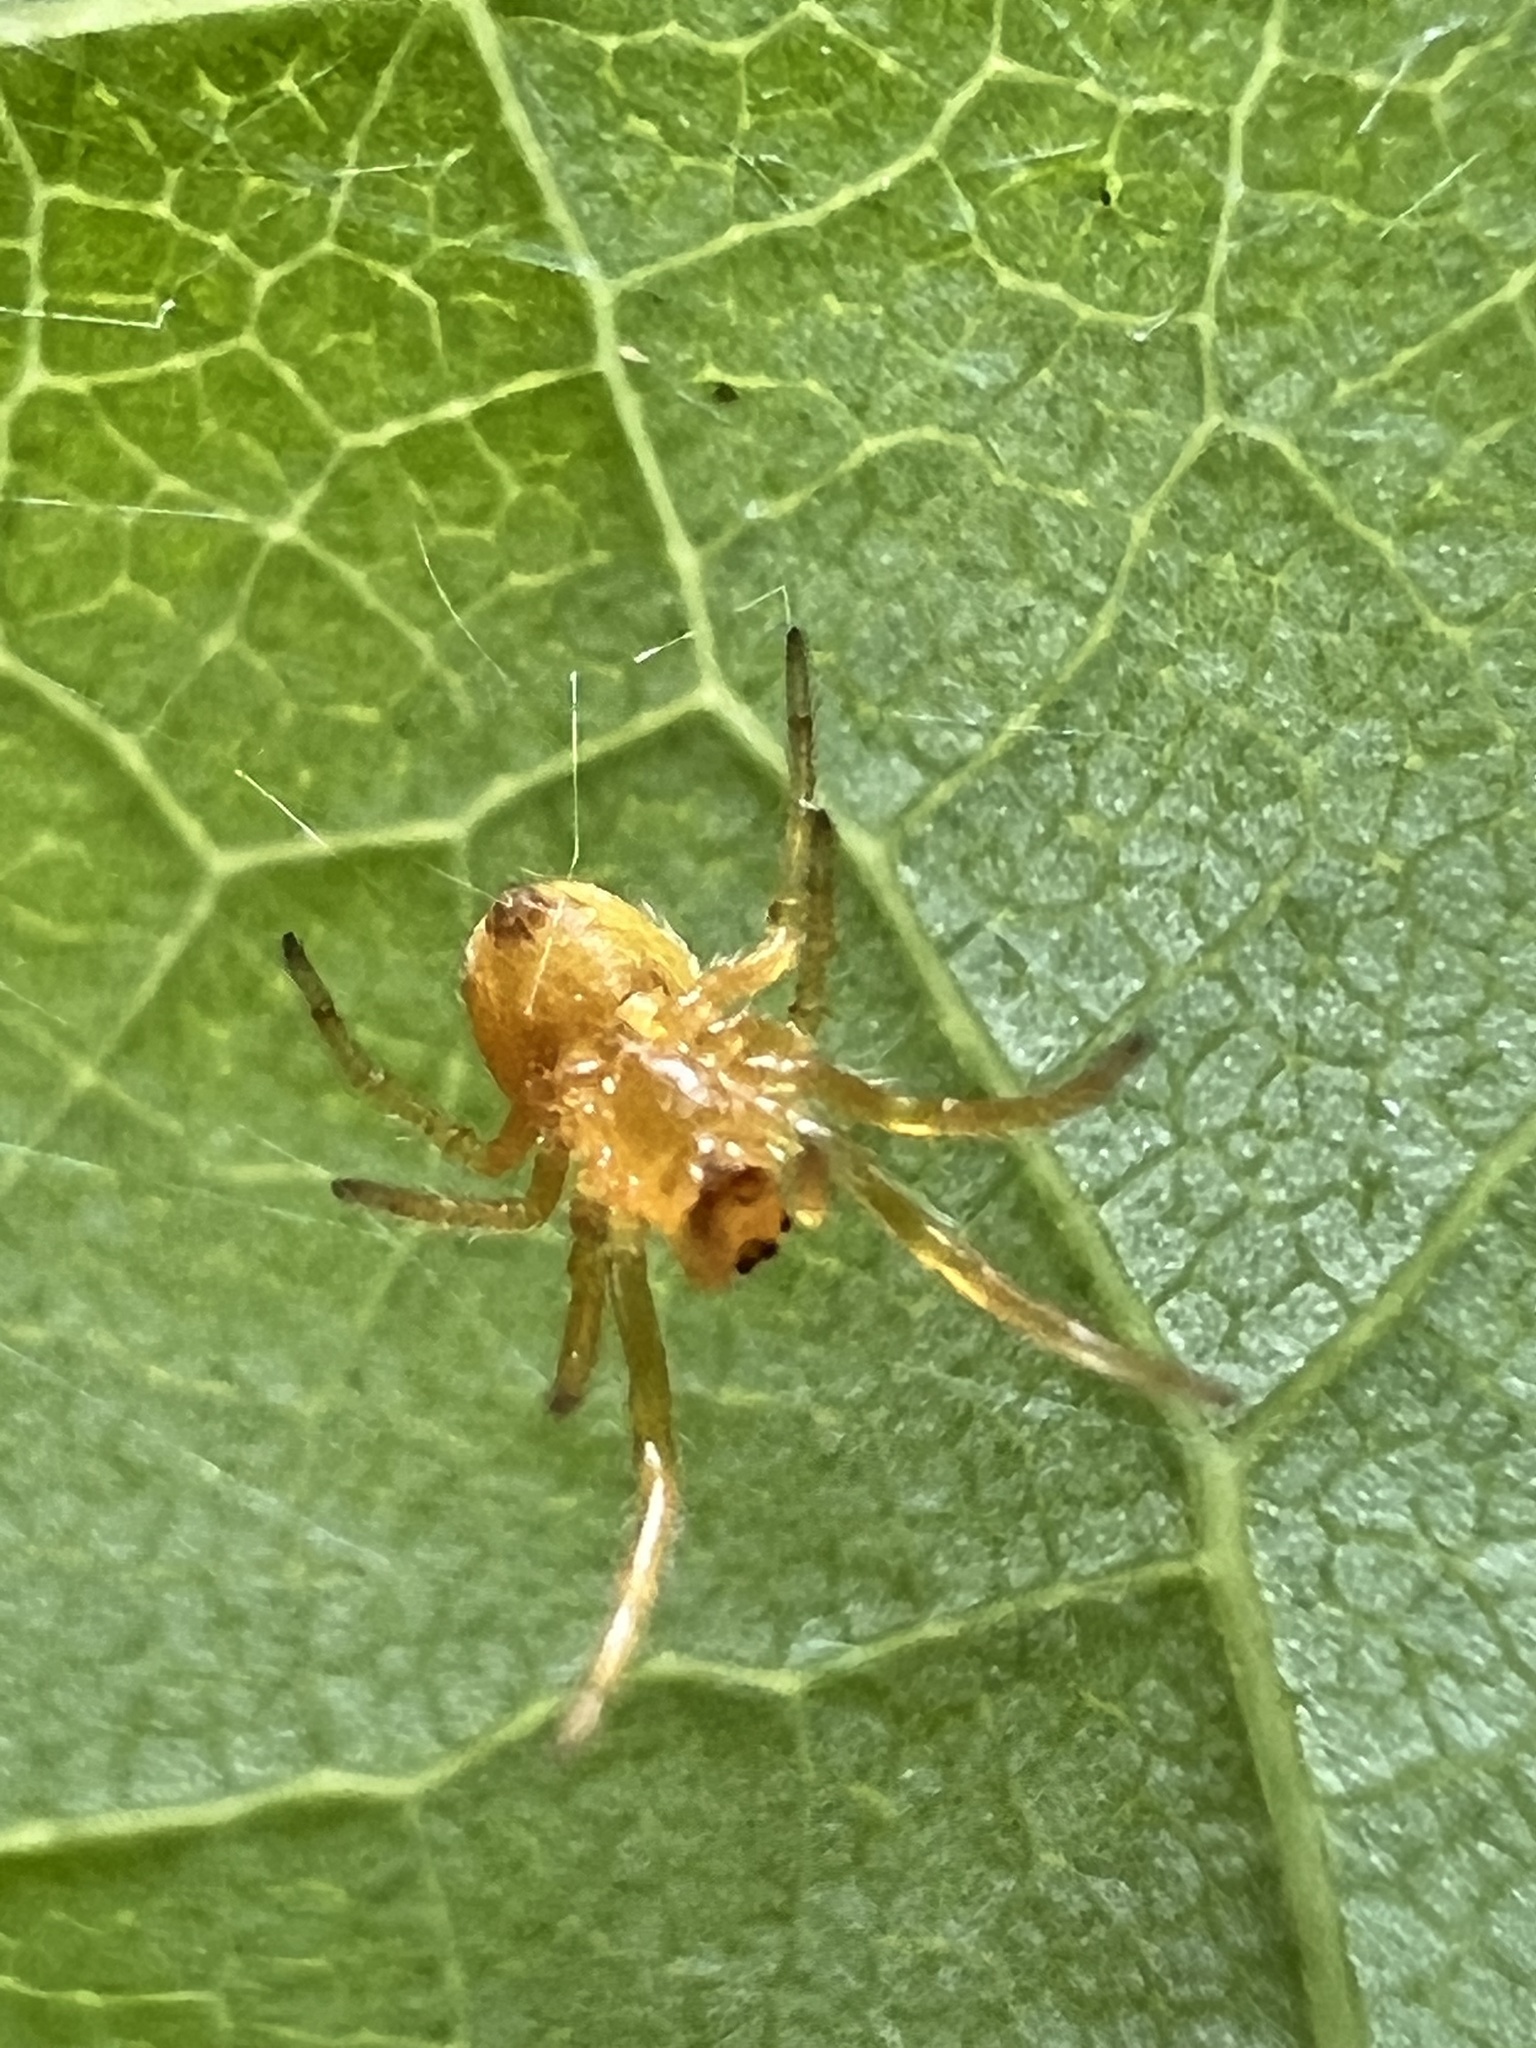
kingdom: Animalia
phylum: Arthropoda
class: Arachnida
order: Araneae
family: Araneidae
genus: Araniella
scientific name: Araniella displicata
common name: Sixspotted orb weaver
